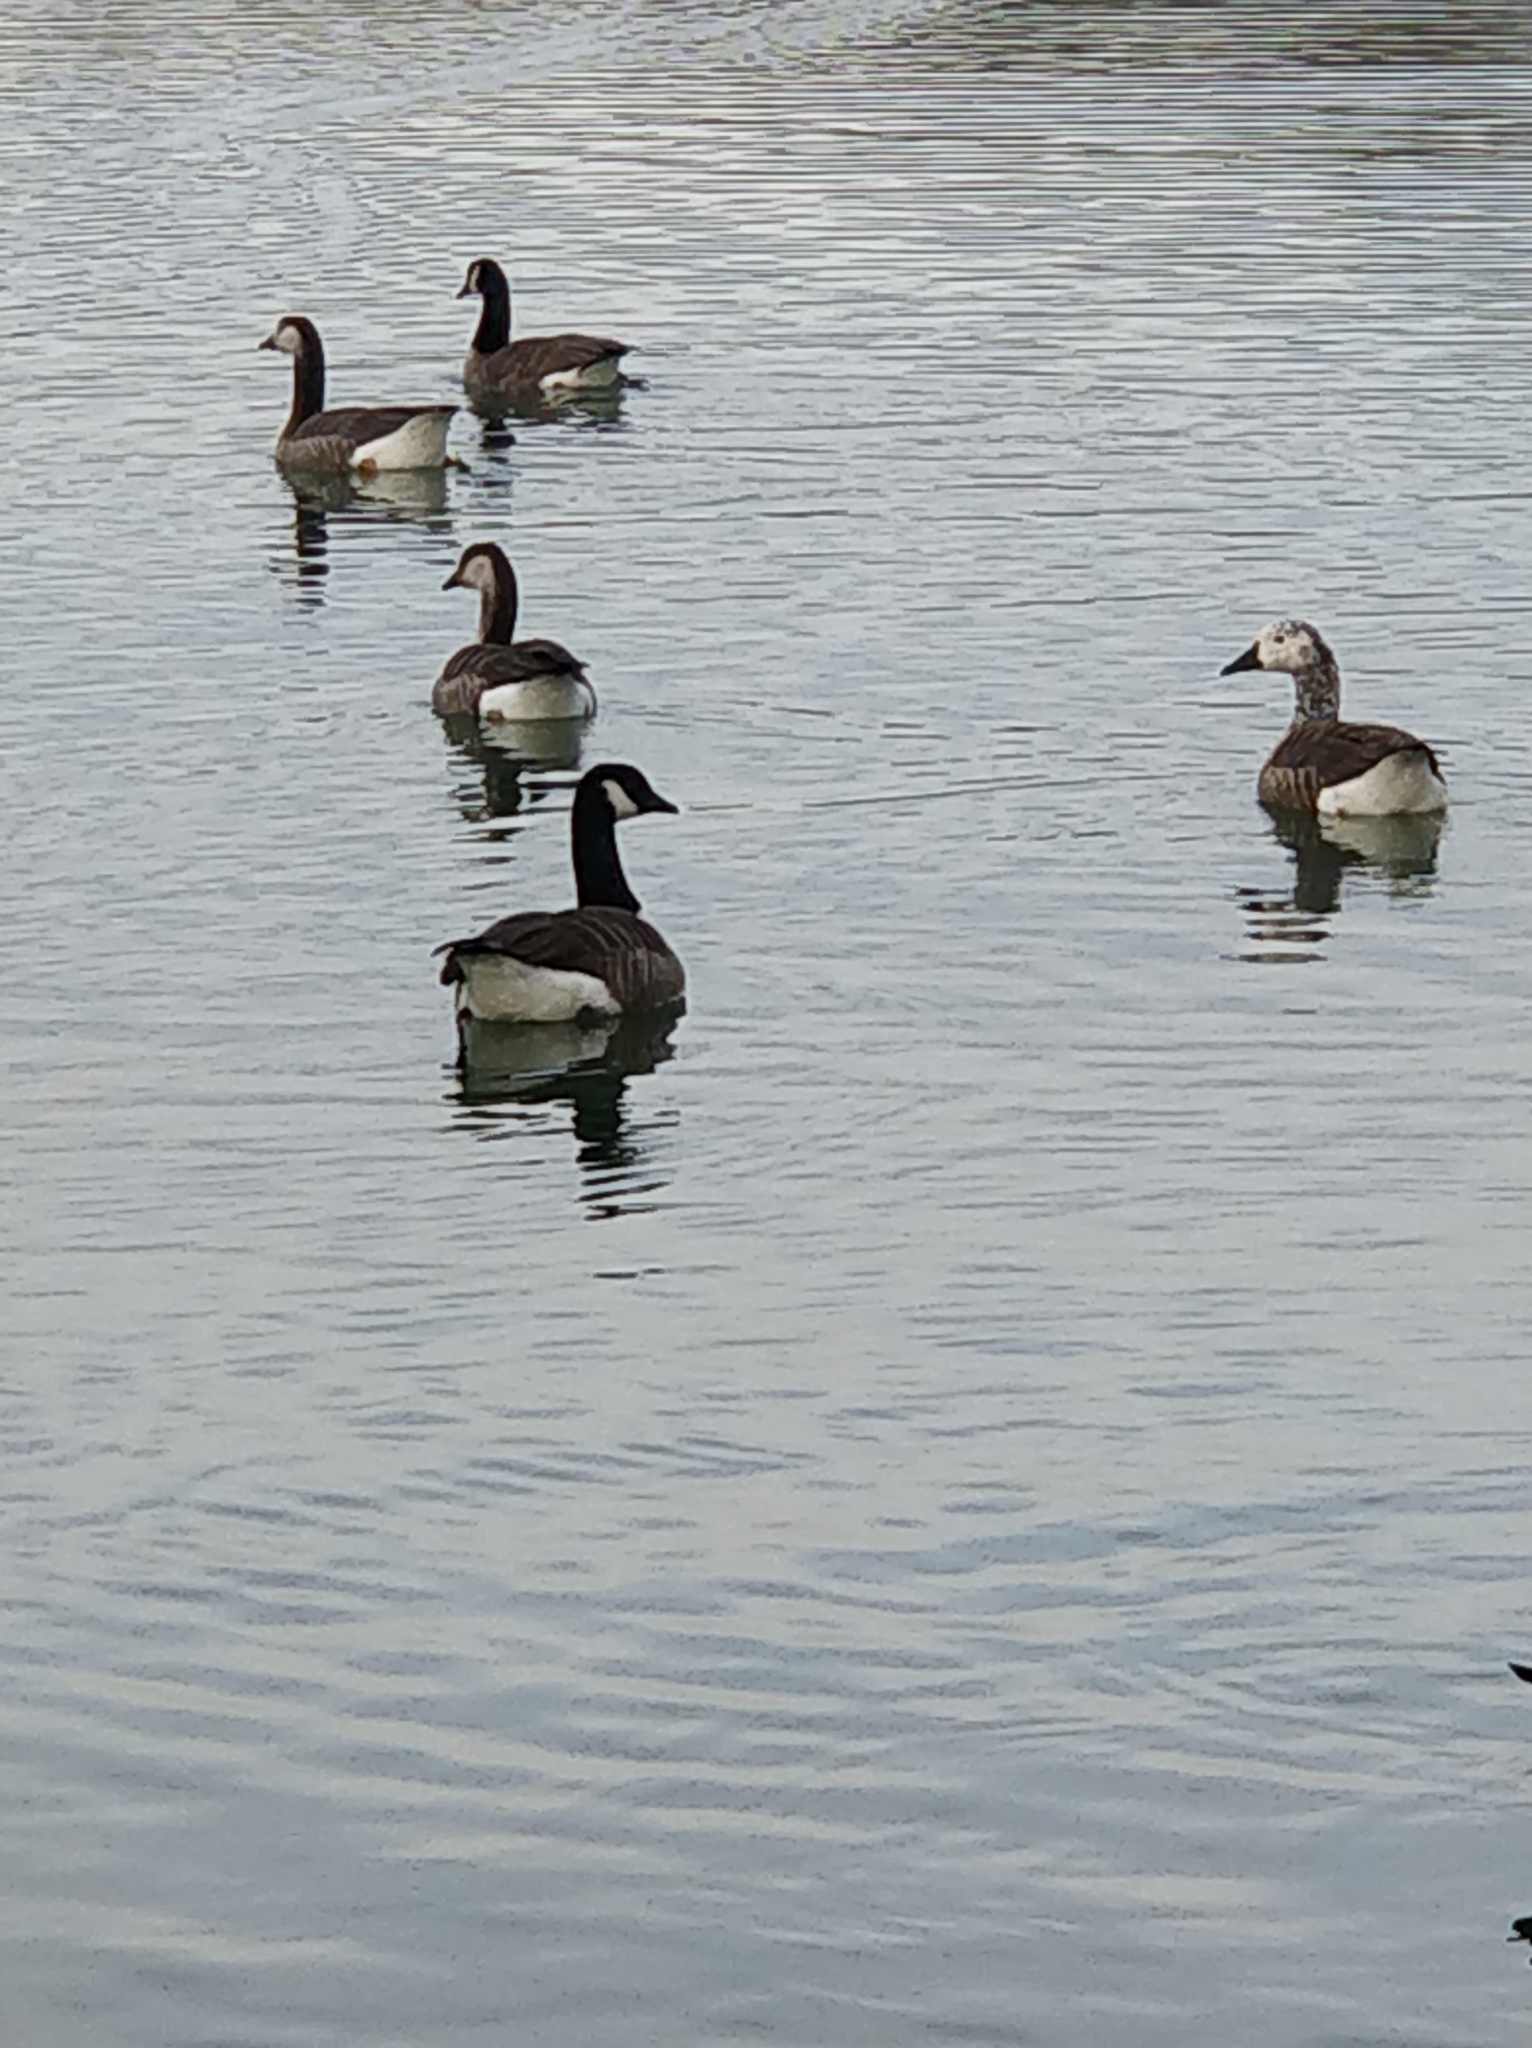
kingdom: Animalia
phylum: Chordata
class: Aves
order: Anseriformes
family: Anatidae
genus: Branta
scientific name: Branta canadensis
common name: Canada goose
